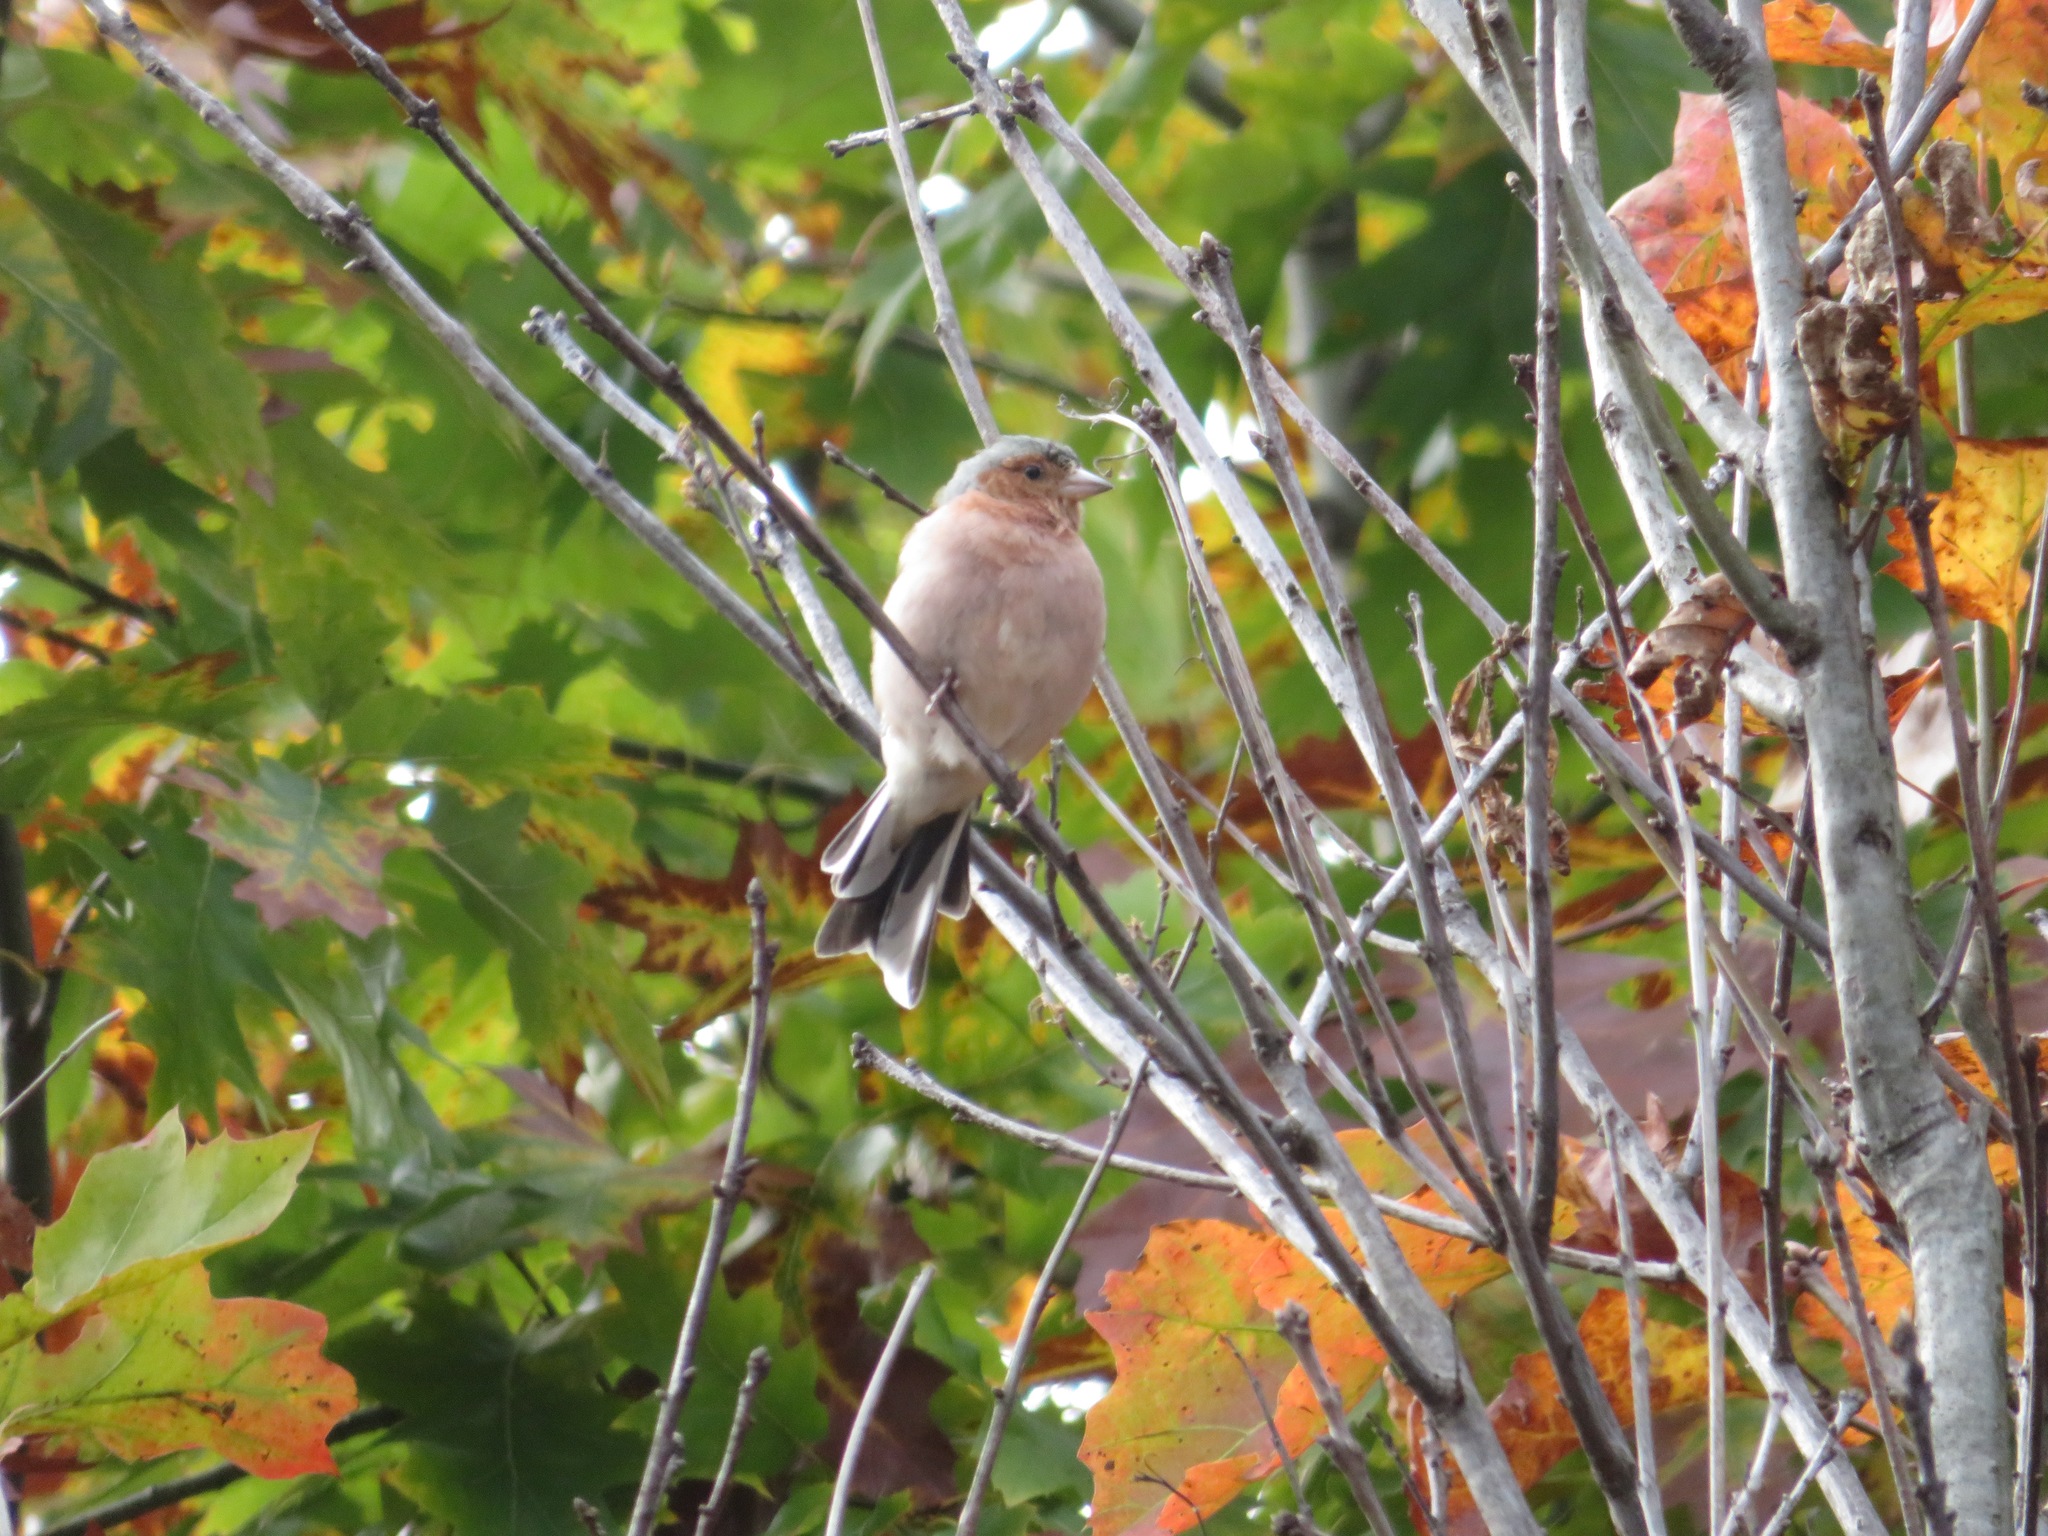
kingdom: Animalia
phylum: Chordata
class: Aves
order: Passeriformes
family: Fringillidae
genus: Fringilla
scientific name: Fringilla coelebs
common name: Common chaffinch
